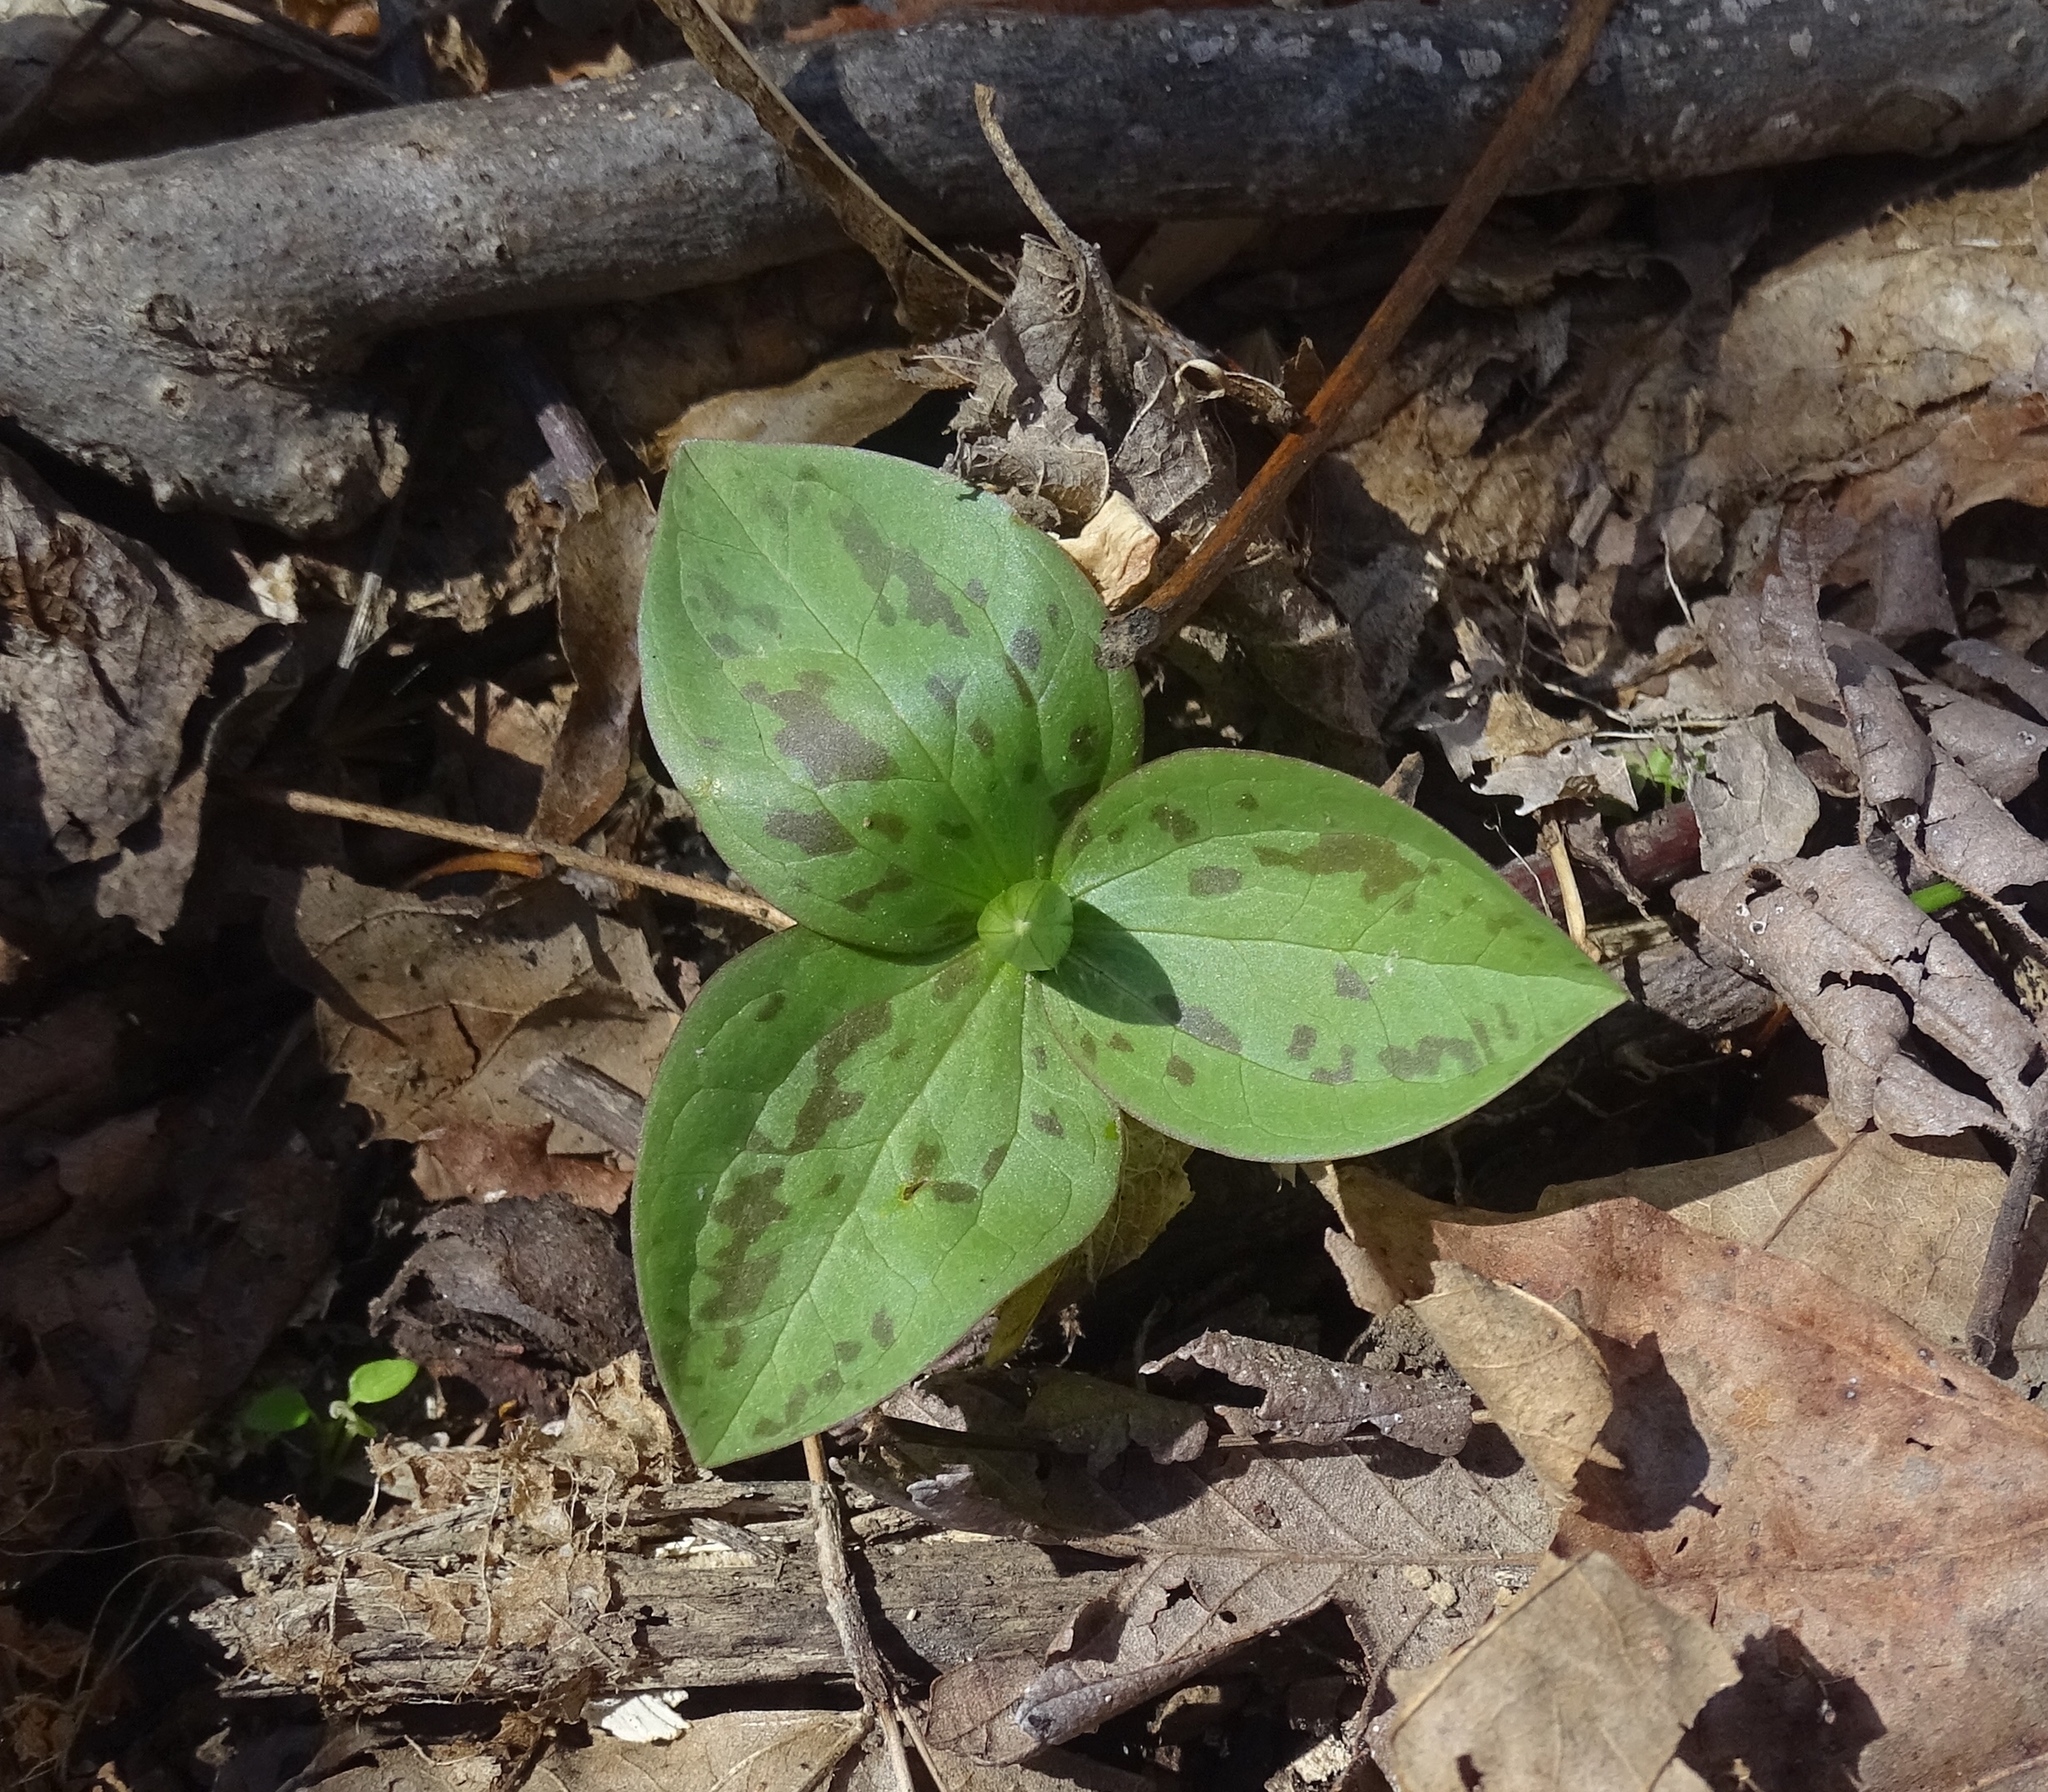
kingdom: Plantae
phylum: Tracheophyta
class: Liliopsida
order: Liliales
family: Melanthiaceae
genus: Trillium
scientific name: Trillium sessile
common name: Sessile trillium
